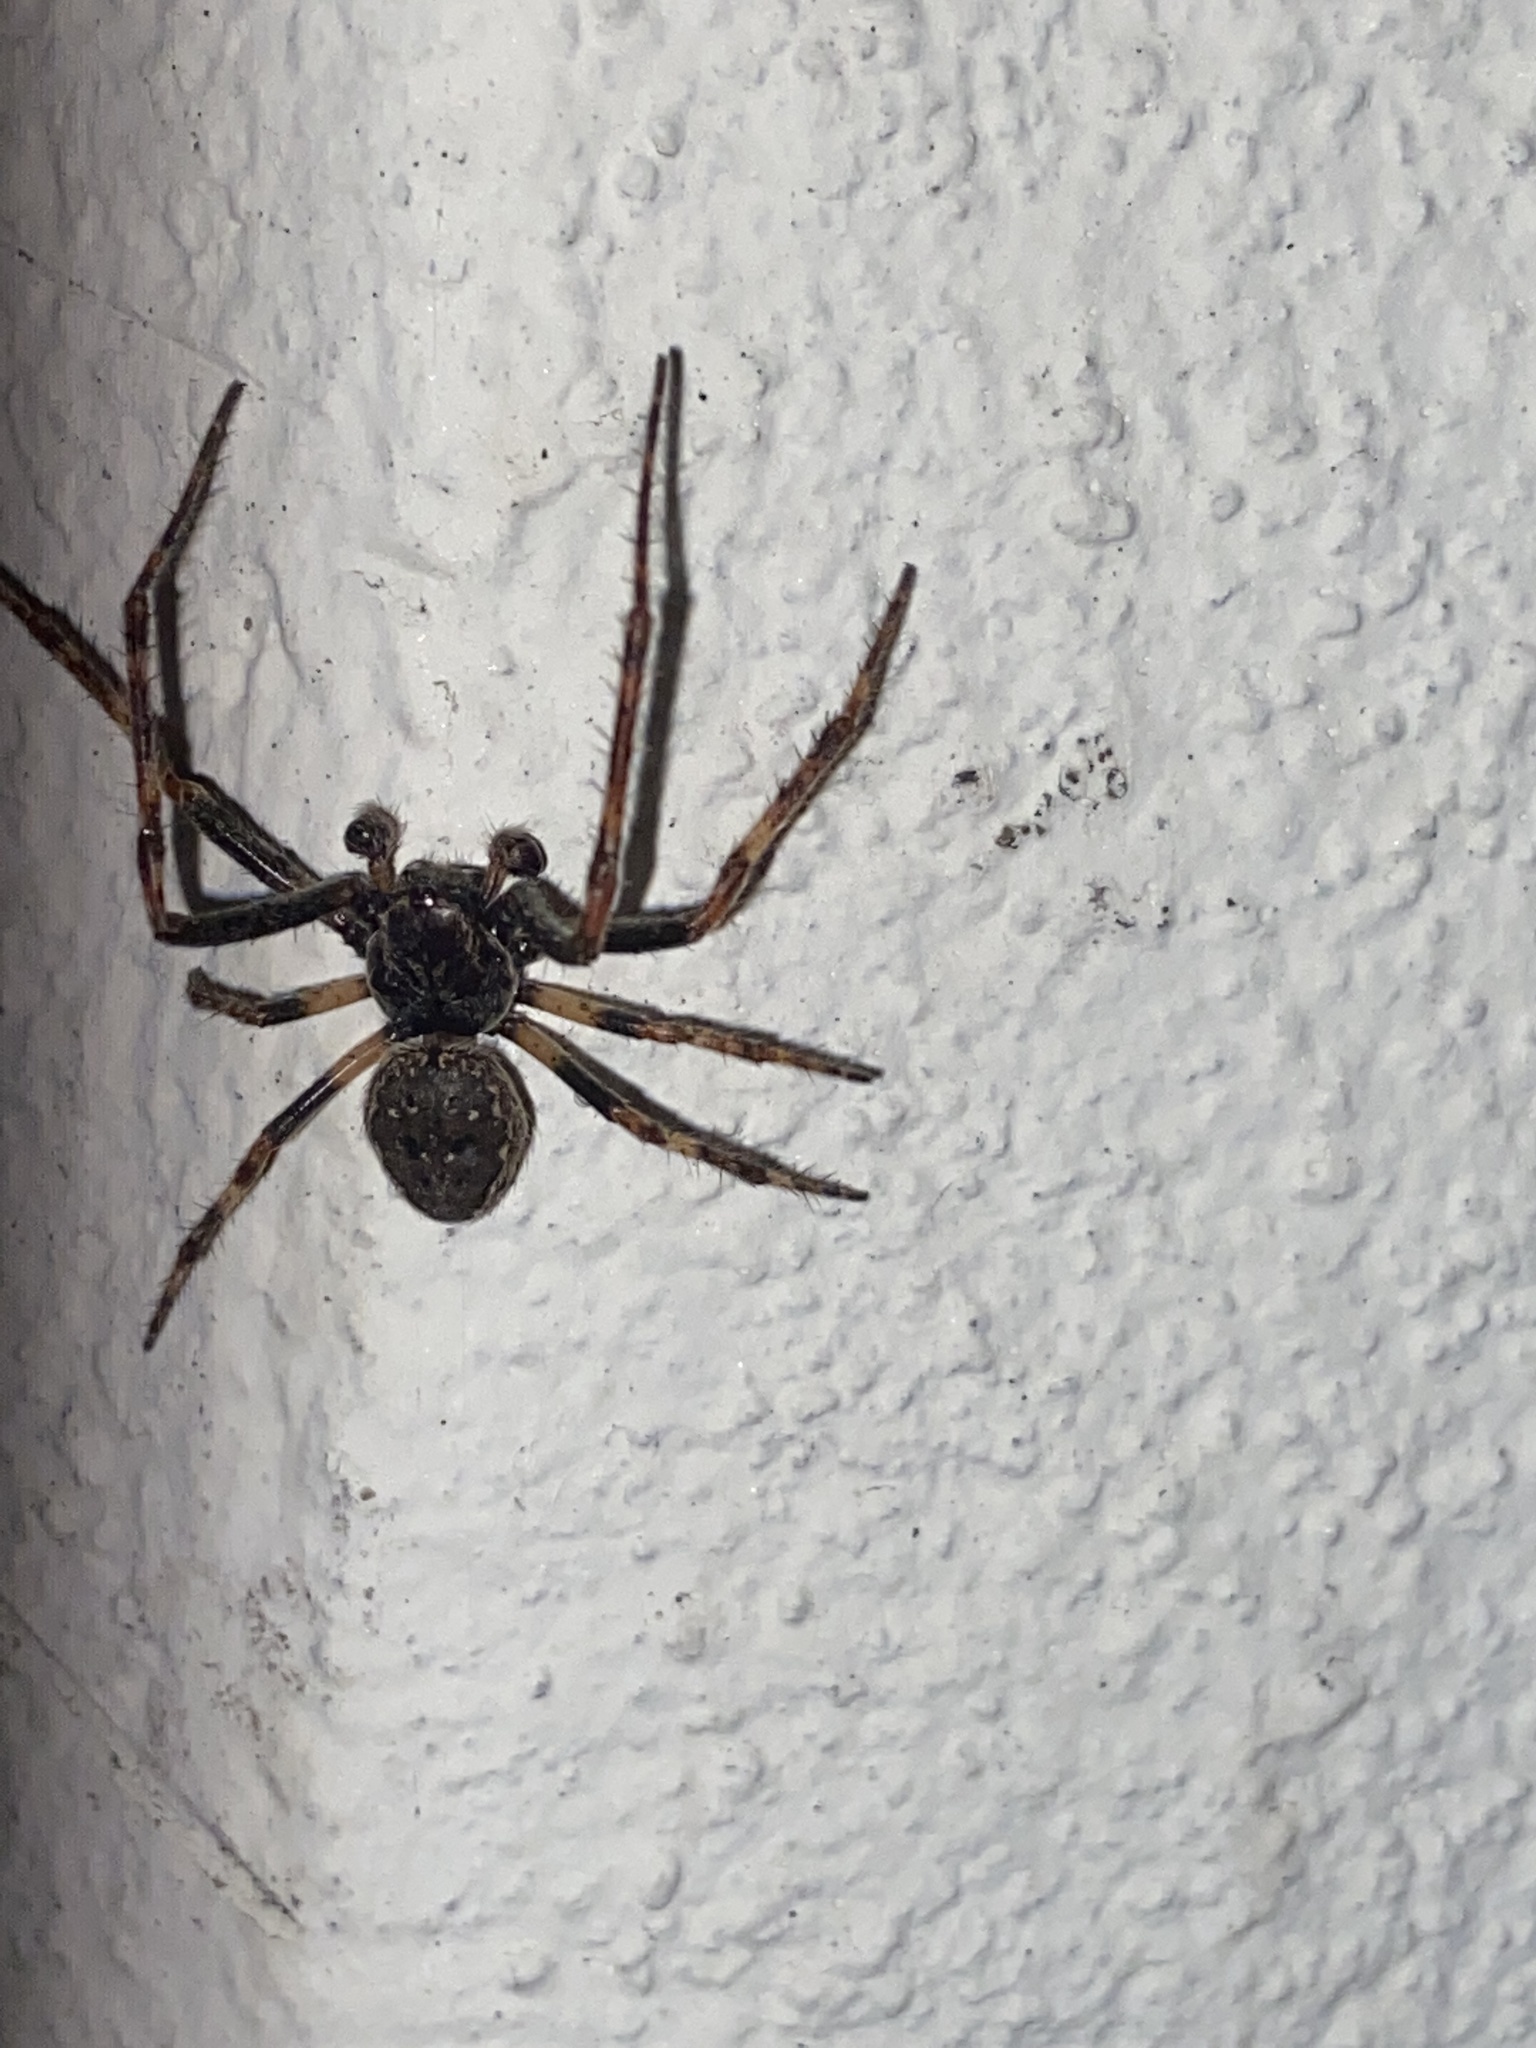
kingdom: Animalia
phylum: Arthropoda
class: Arachnida
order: Araneae
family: Araneidae
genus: Nuctenea
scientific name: Nuctenea umbratica
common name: Toad spider
